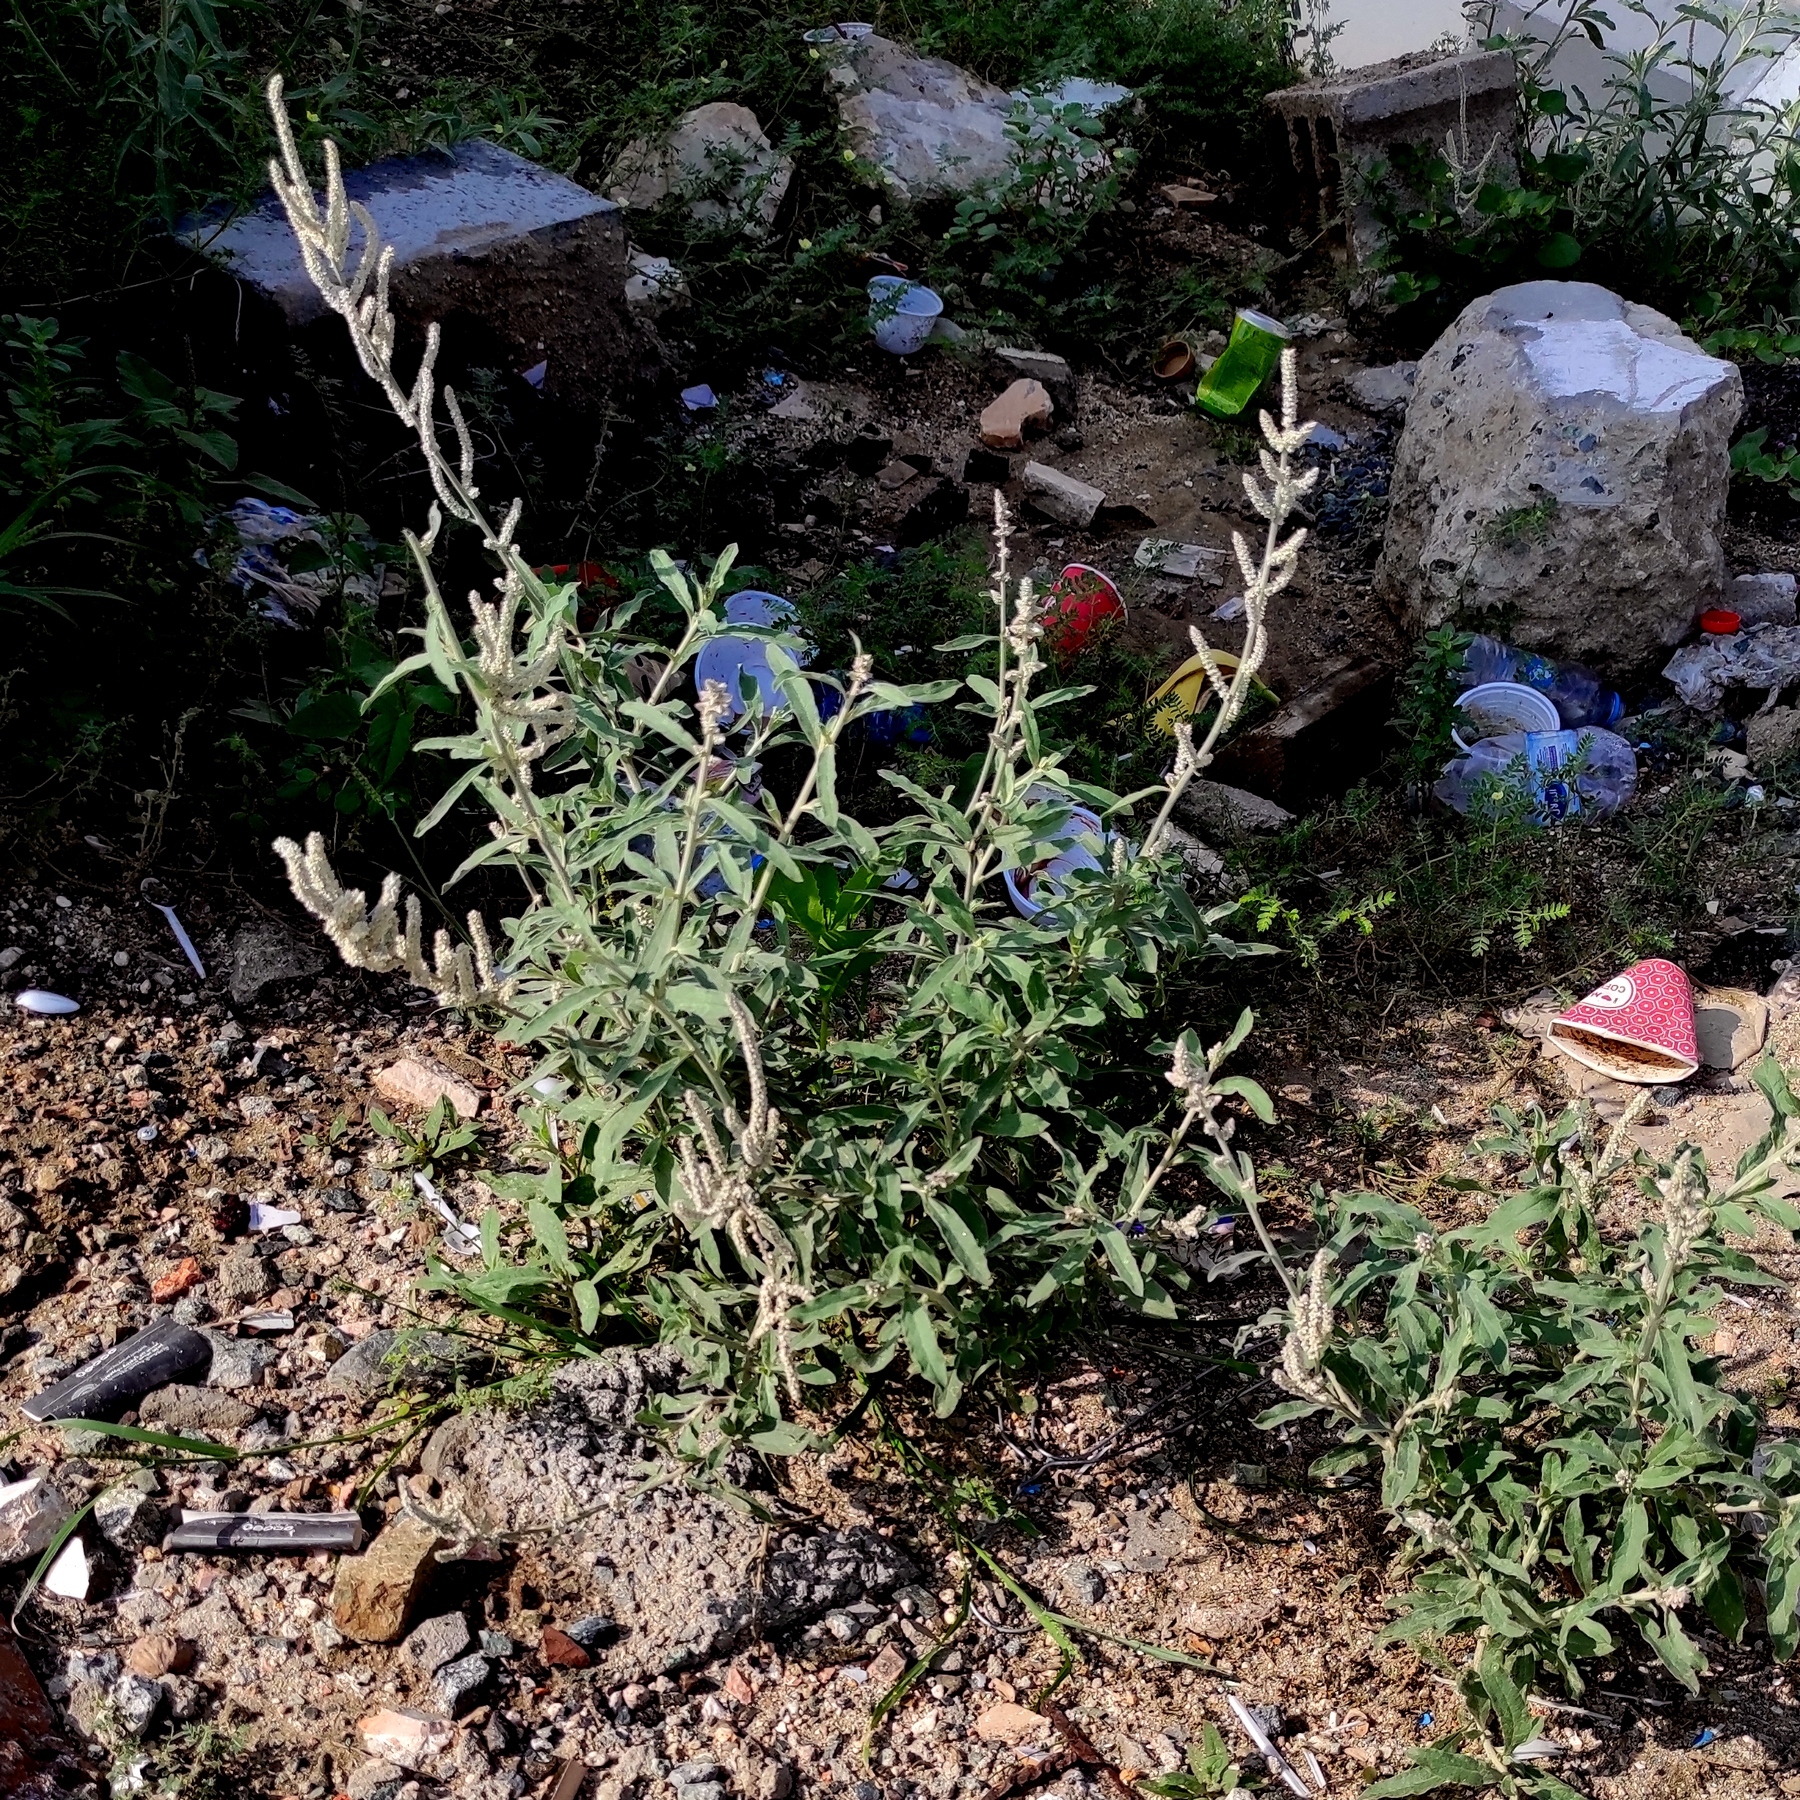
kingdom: Plantae
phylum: Tracheophyta
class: Magnoliopsida
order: Caryophyllales
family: Amaranthaceae
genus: Aerva
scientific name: Aerva javanica
